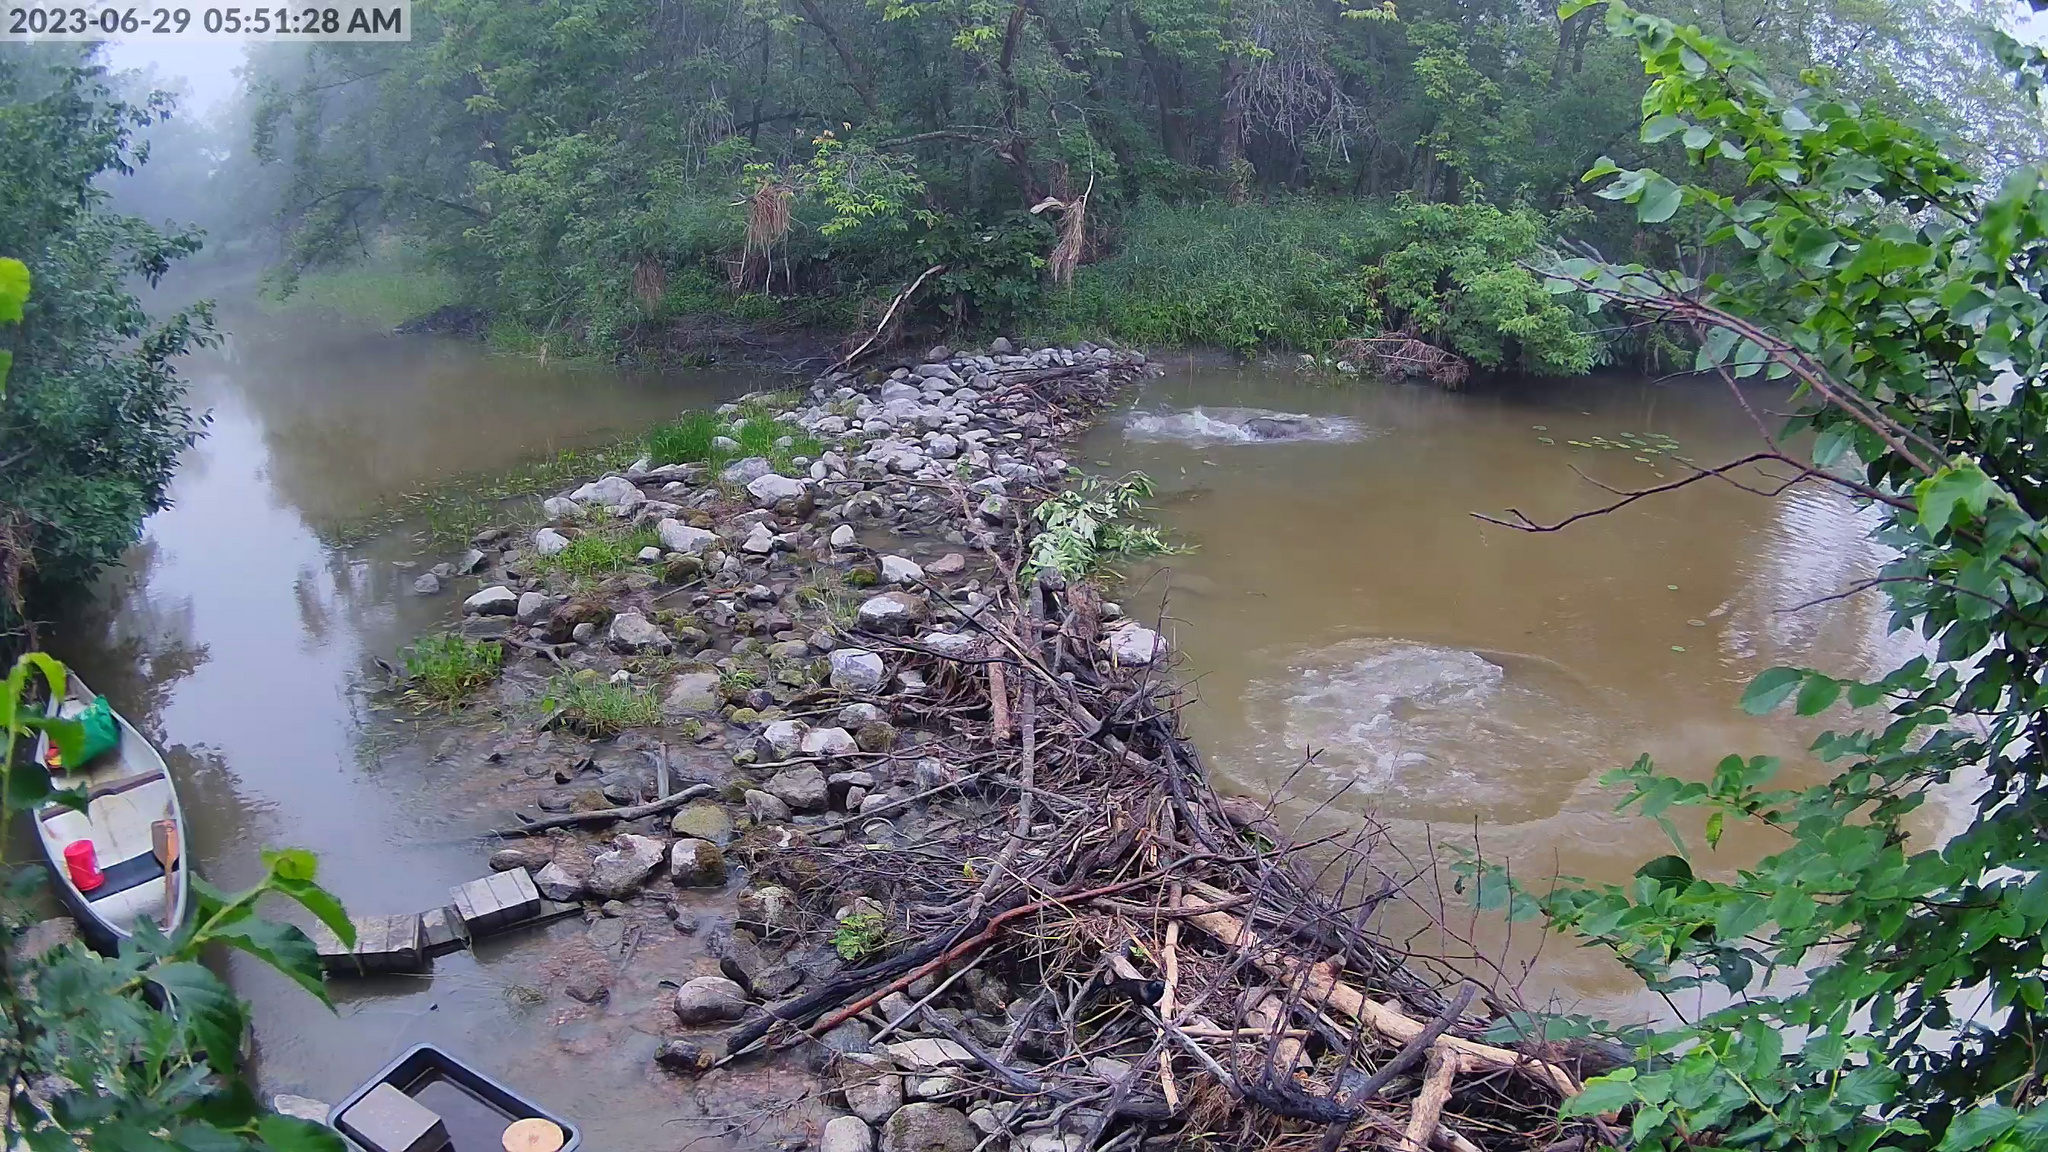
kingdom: Animalia
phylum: Chordata
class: Mammalia
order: Rodentia
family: Castoridae
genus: Castor
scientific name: Castor canadensis
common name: American beaver
